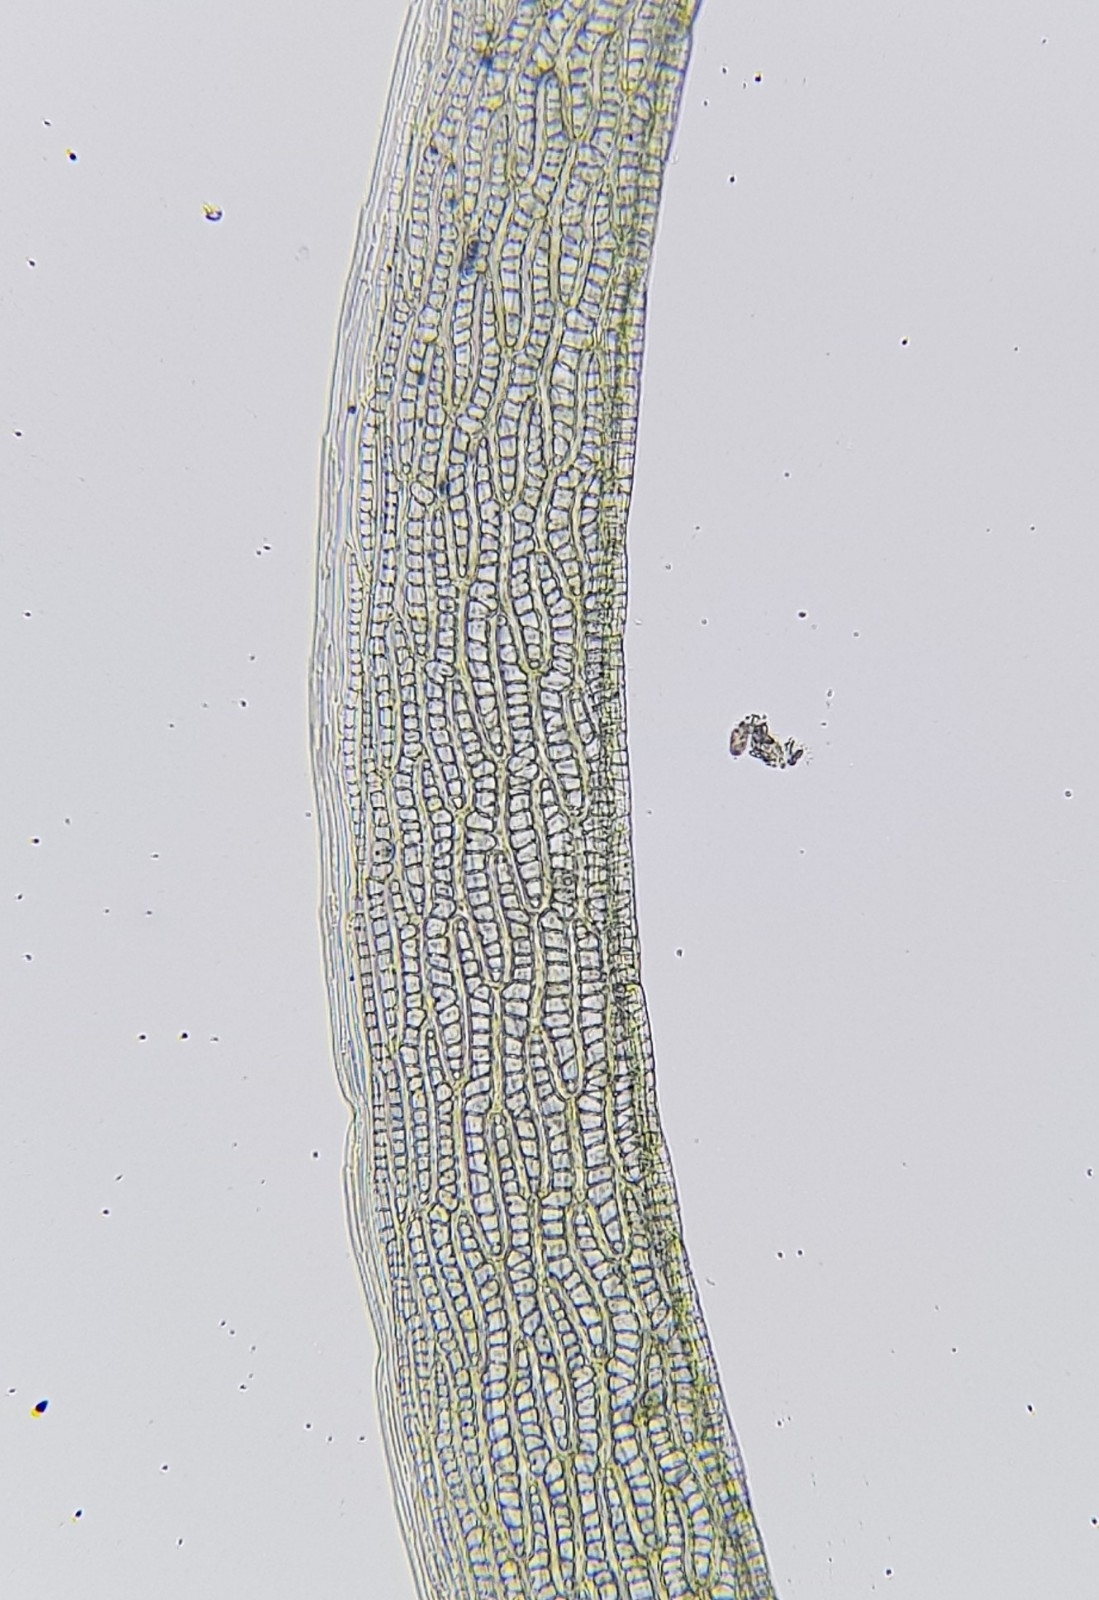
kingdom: Plantae
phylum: Bryophyta
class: Sphagnopsida
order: Sphagnales
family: Sphagnaceae
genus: Sphagnum
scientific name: Sphagnum cuspidatum
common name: Feathery peat moss
